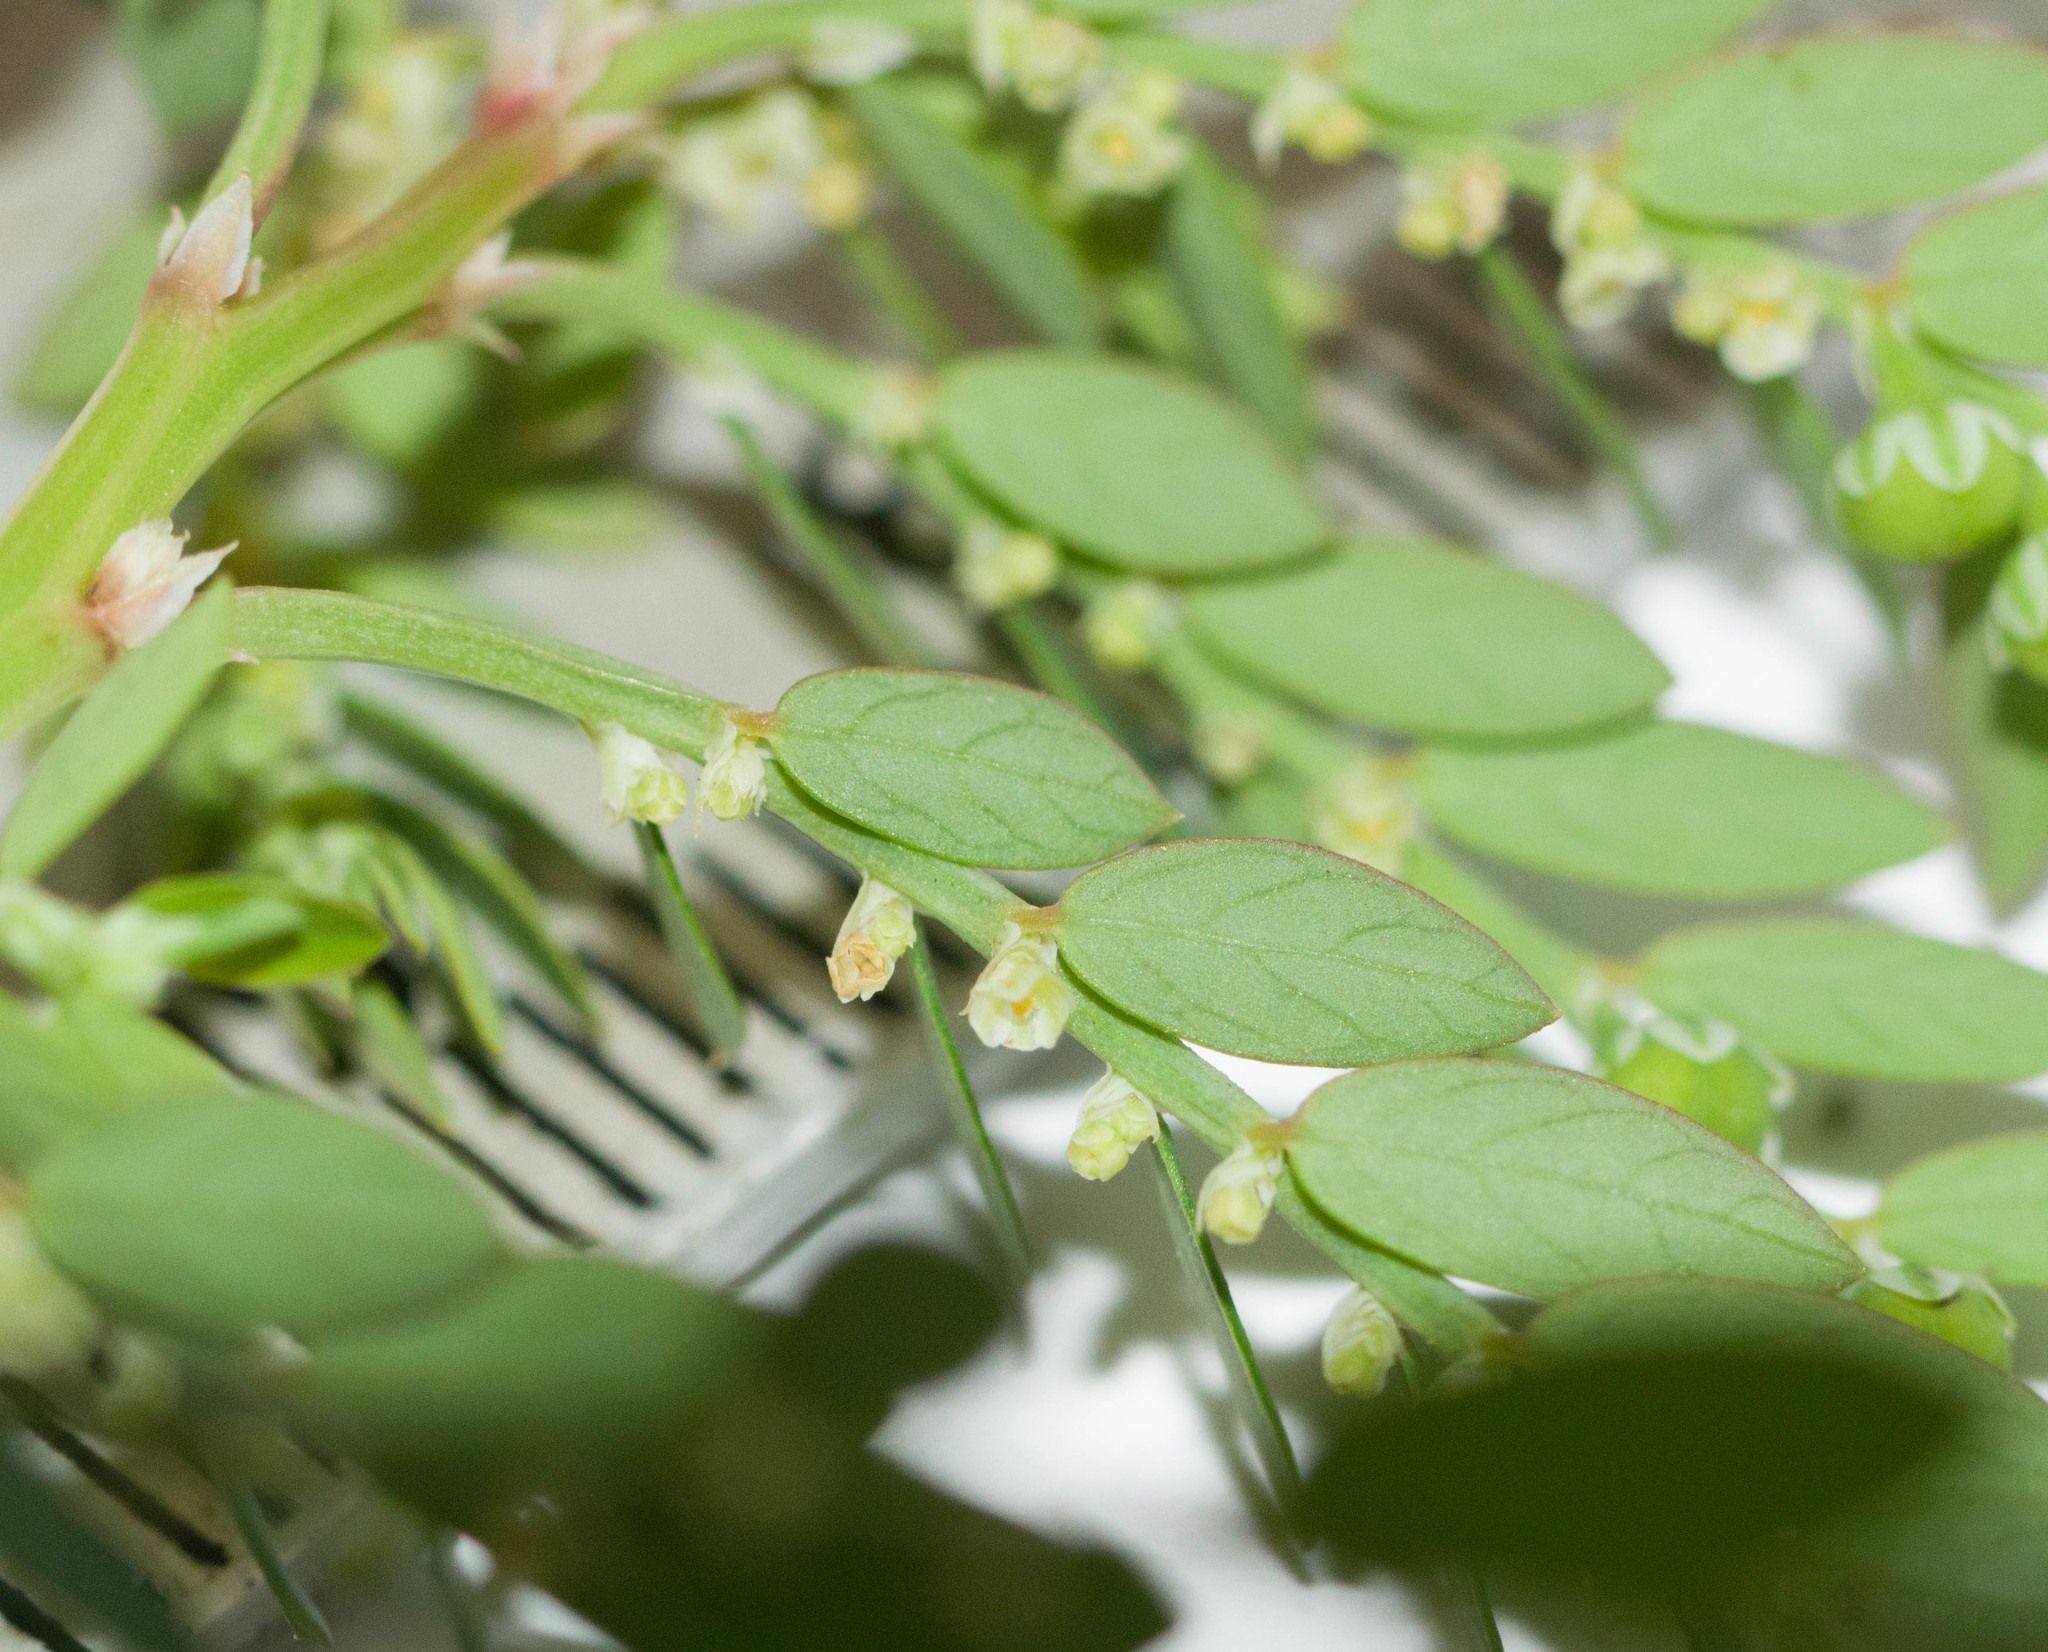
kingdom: Plantae
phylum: Tracheophyta
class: Magnoliopsida
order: Malpighiales
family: Phyllanthaceae
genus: Phyllanthus
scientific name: Phyllanthus debilis
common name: Niruri
